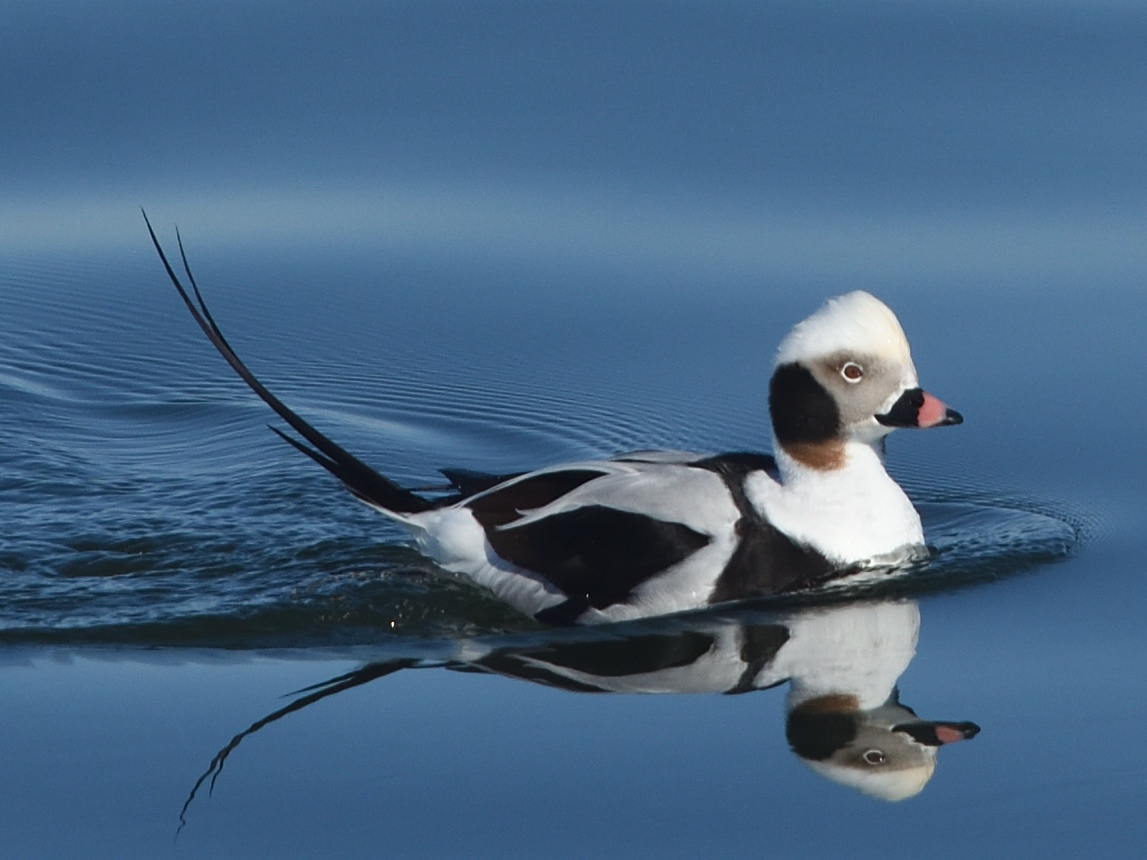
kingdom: Animalia
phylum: Chordata
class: Aves
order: Anseriformes
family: Anatidae
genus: Clangula
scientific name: Clangula hyemalis
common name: Long-tailed duck
